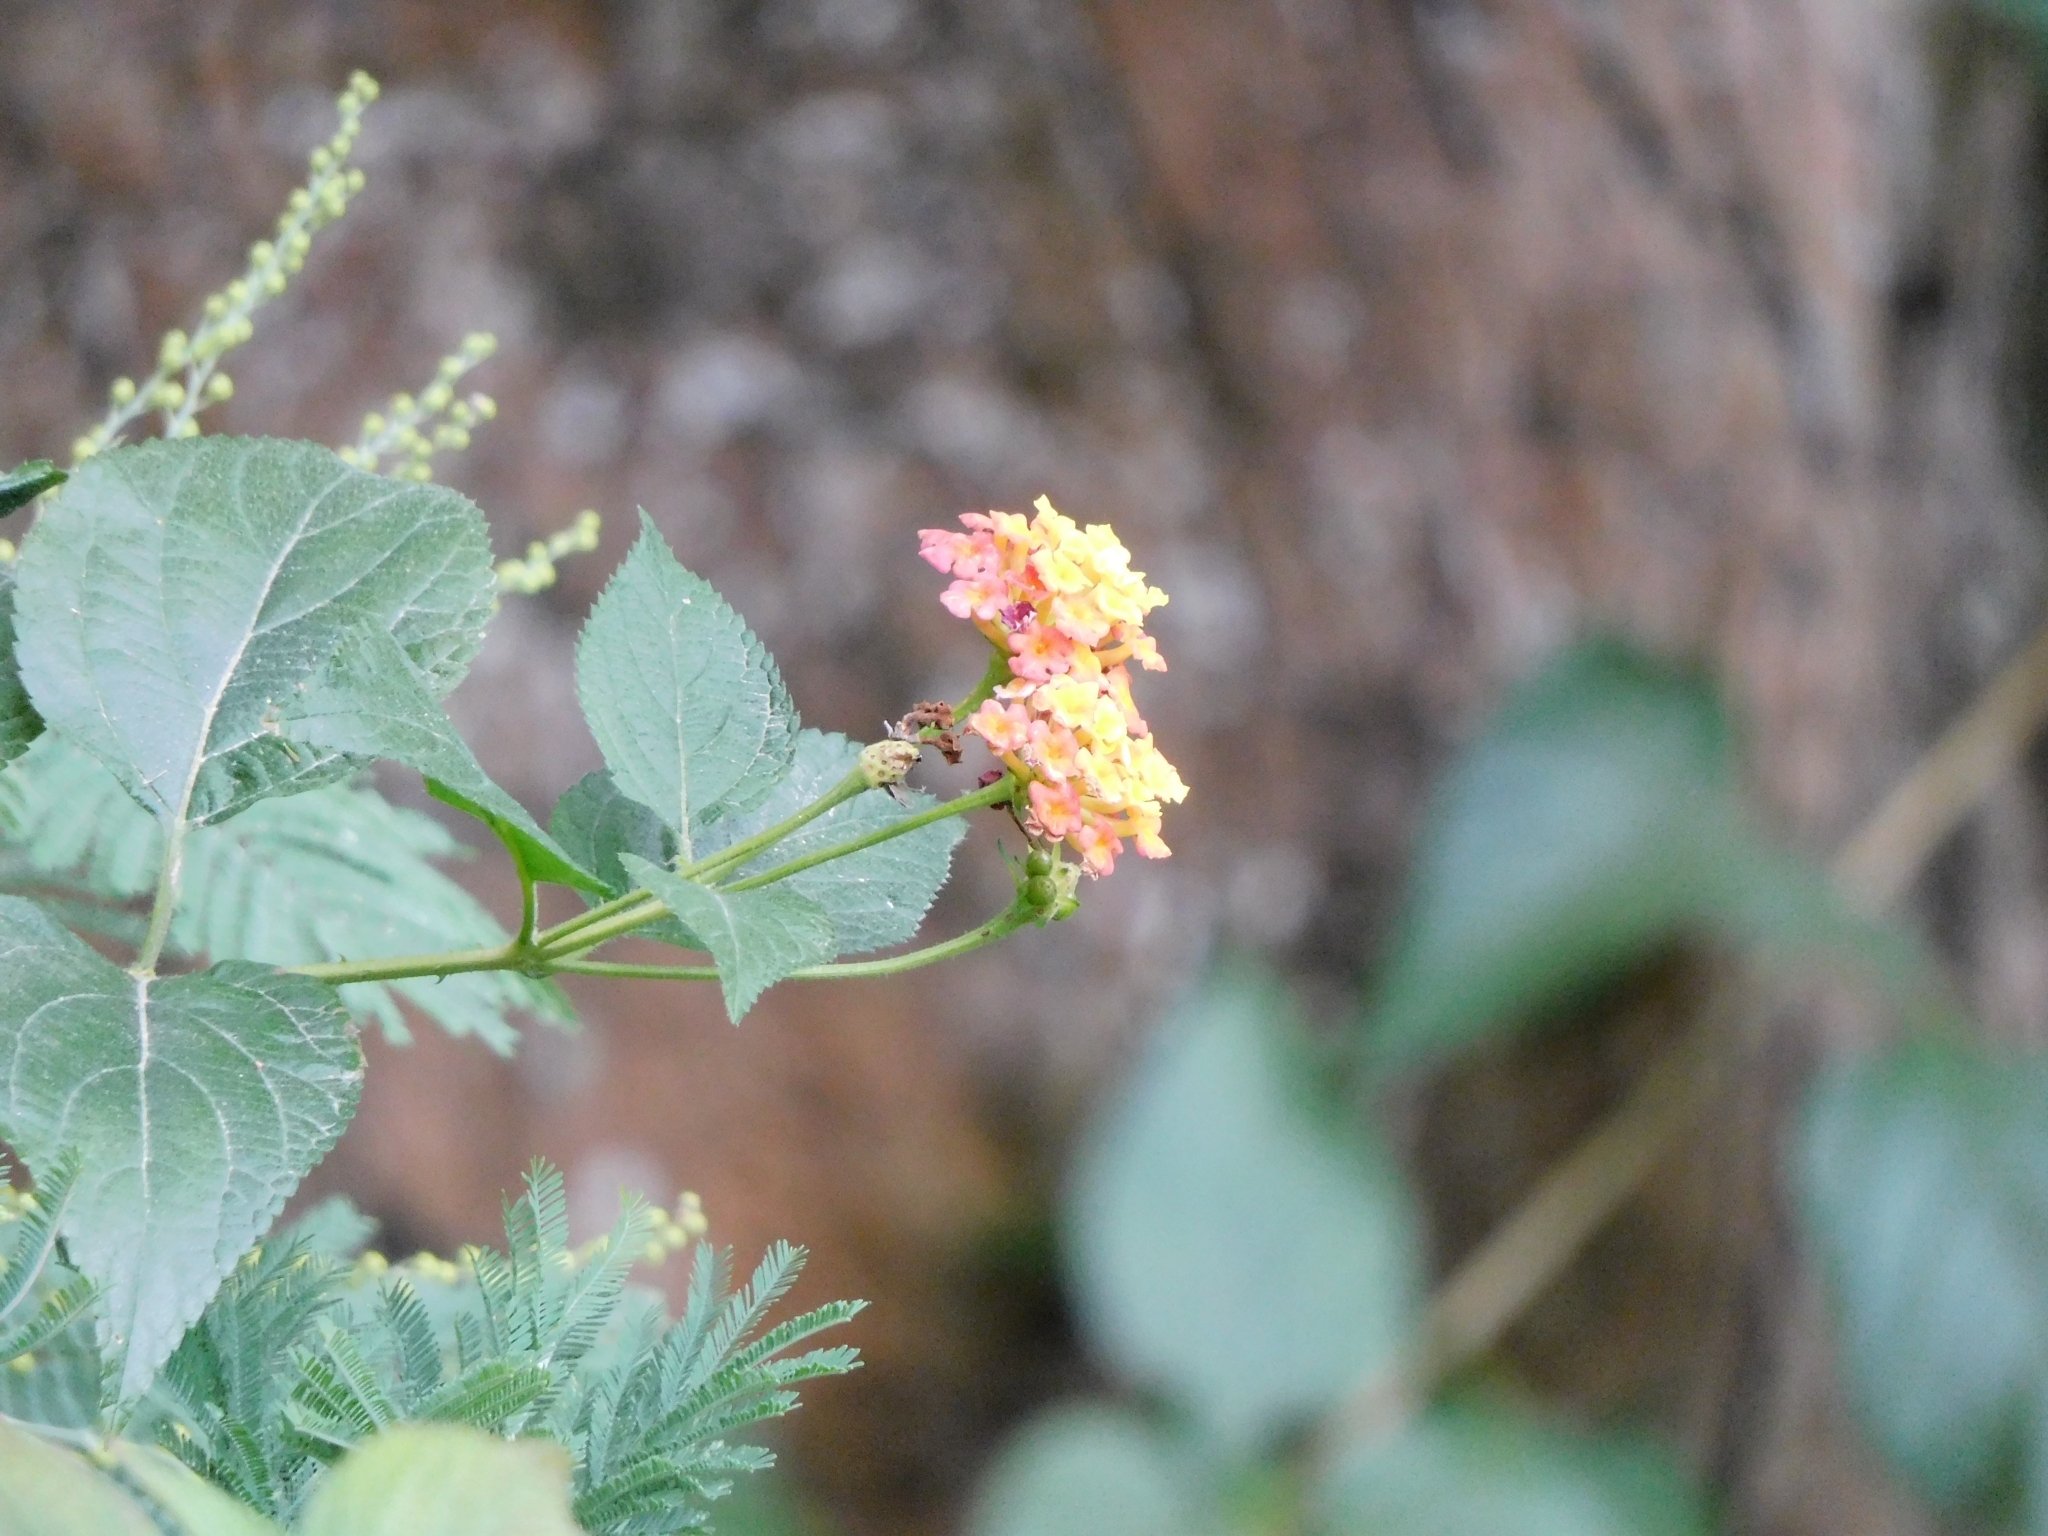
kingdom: Plantae
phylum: Tracheophyta
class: Magnoliopsida
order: Lamiales
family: Verbenaceae
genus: Lantana
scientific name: Lantana camara
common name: Lantana
